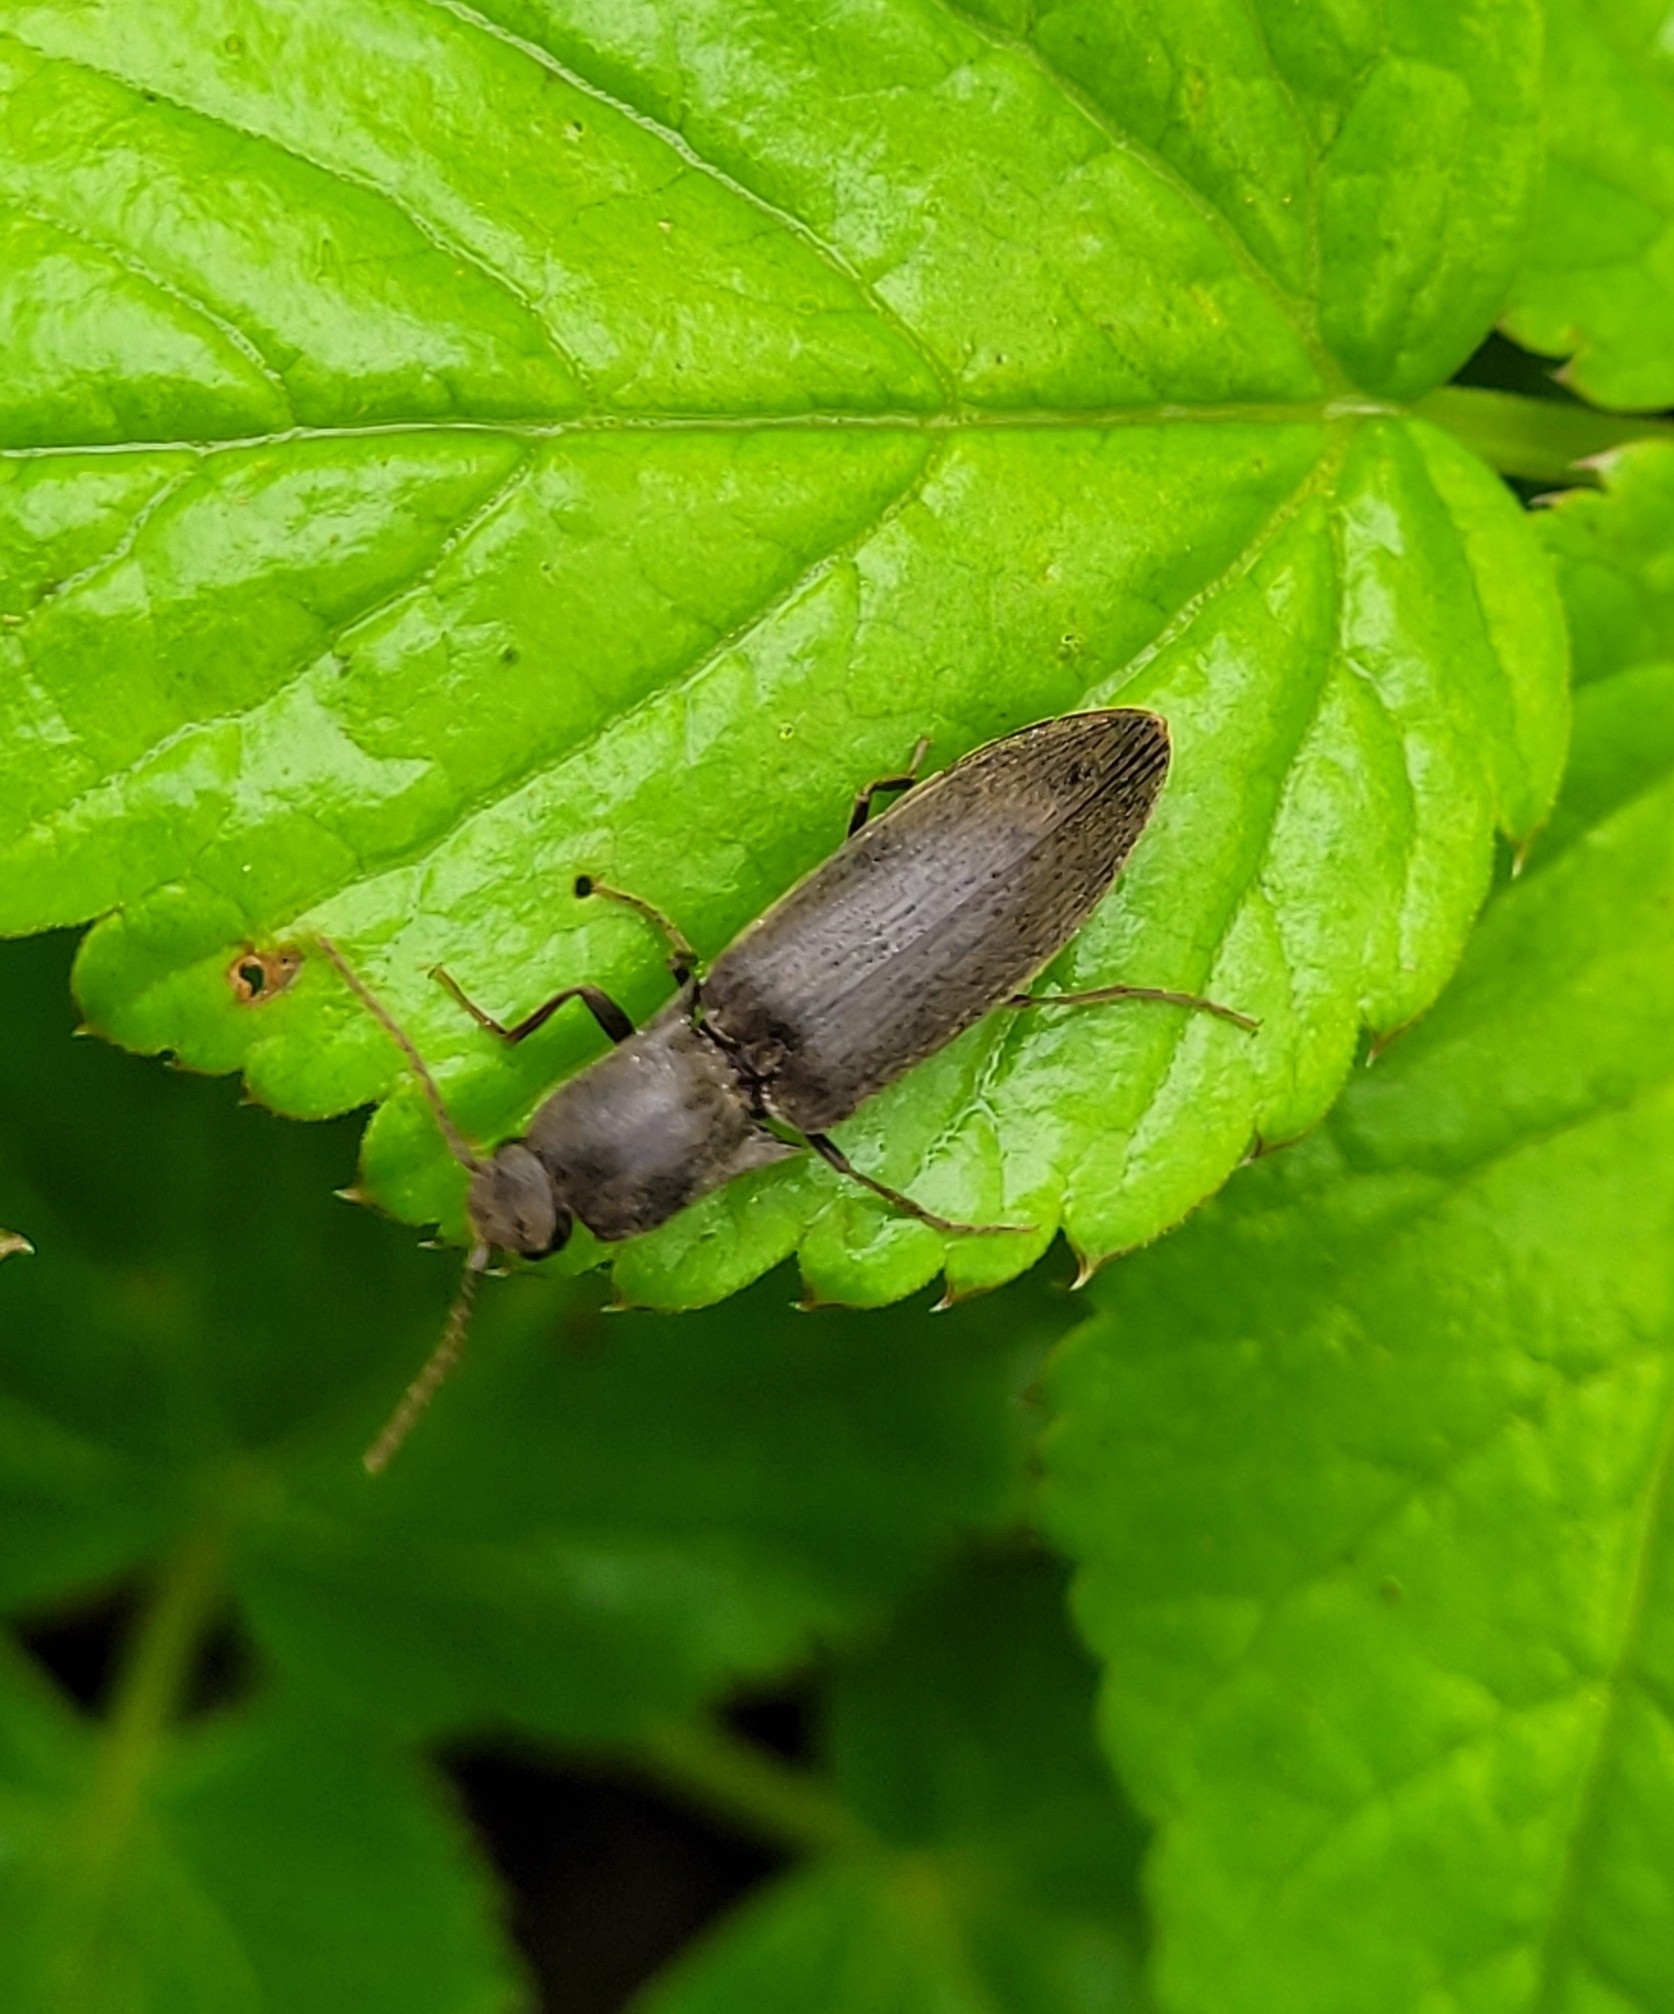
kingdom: Animalia
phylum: Arthropoda
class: Insecta
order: Coleoptera
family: Elateridae
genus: Agriotes
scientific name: Agriotes pilosellus
